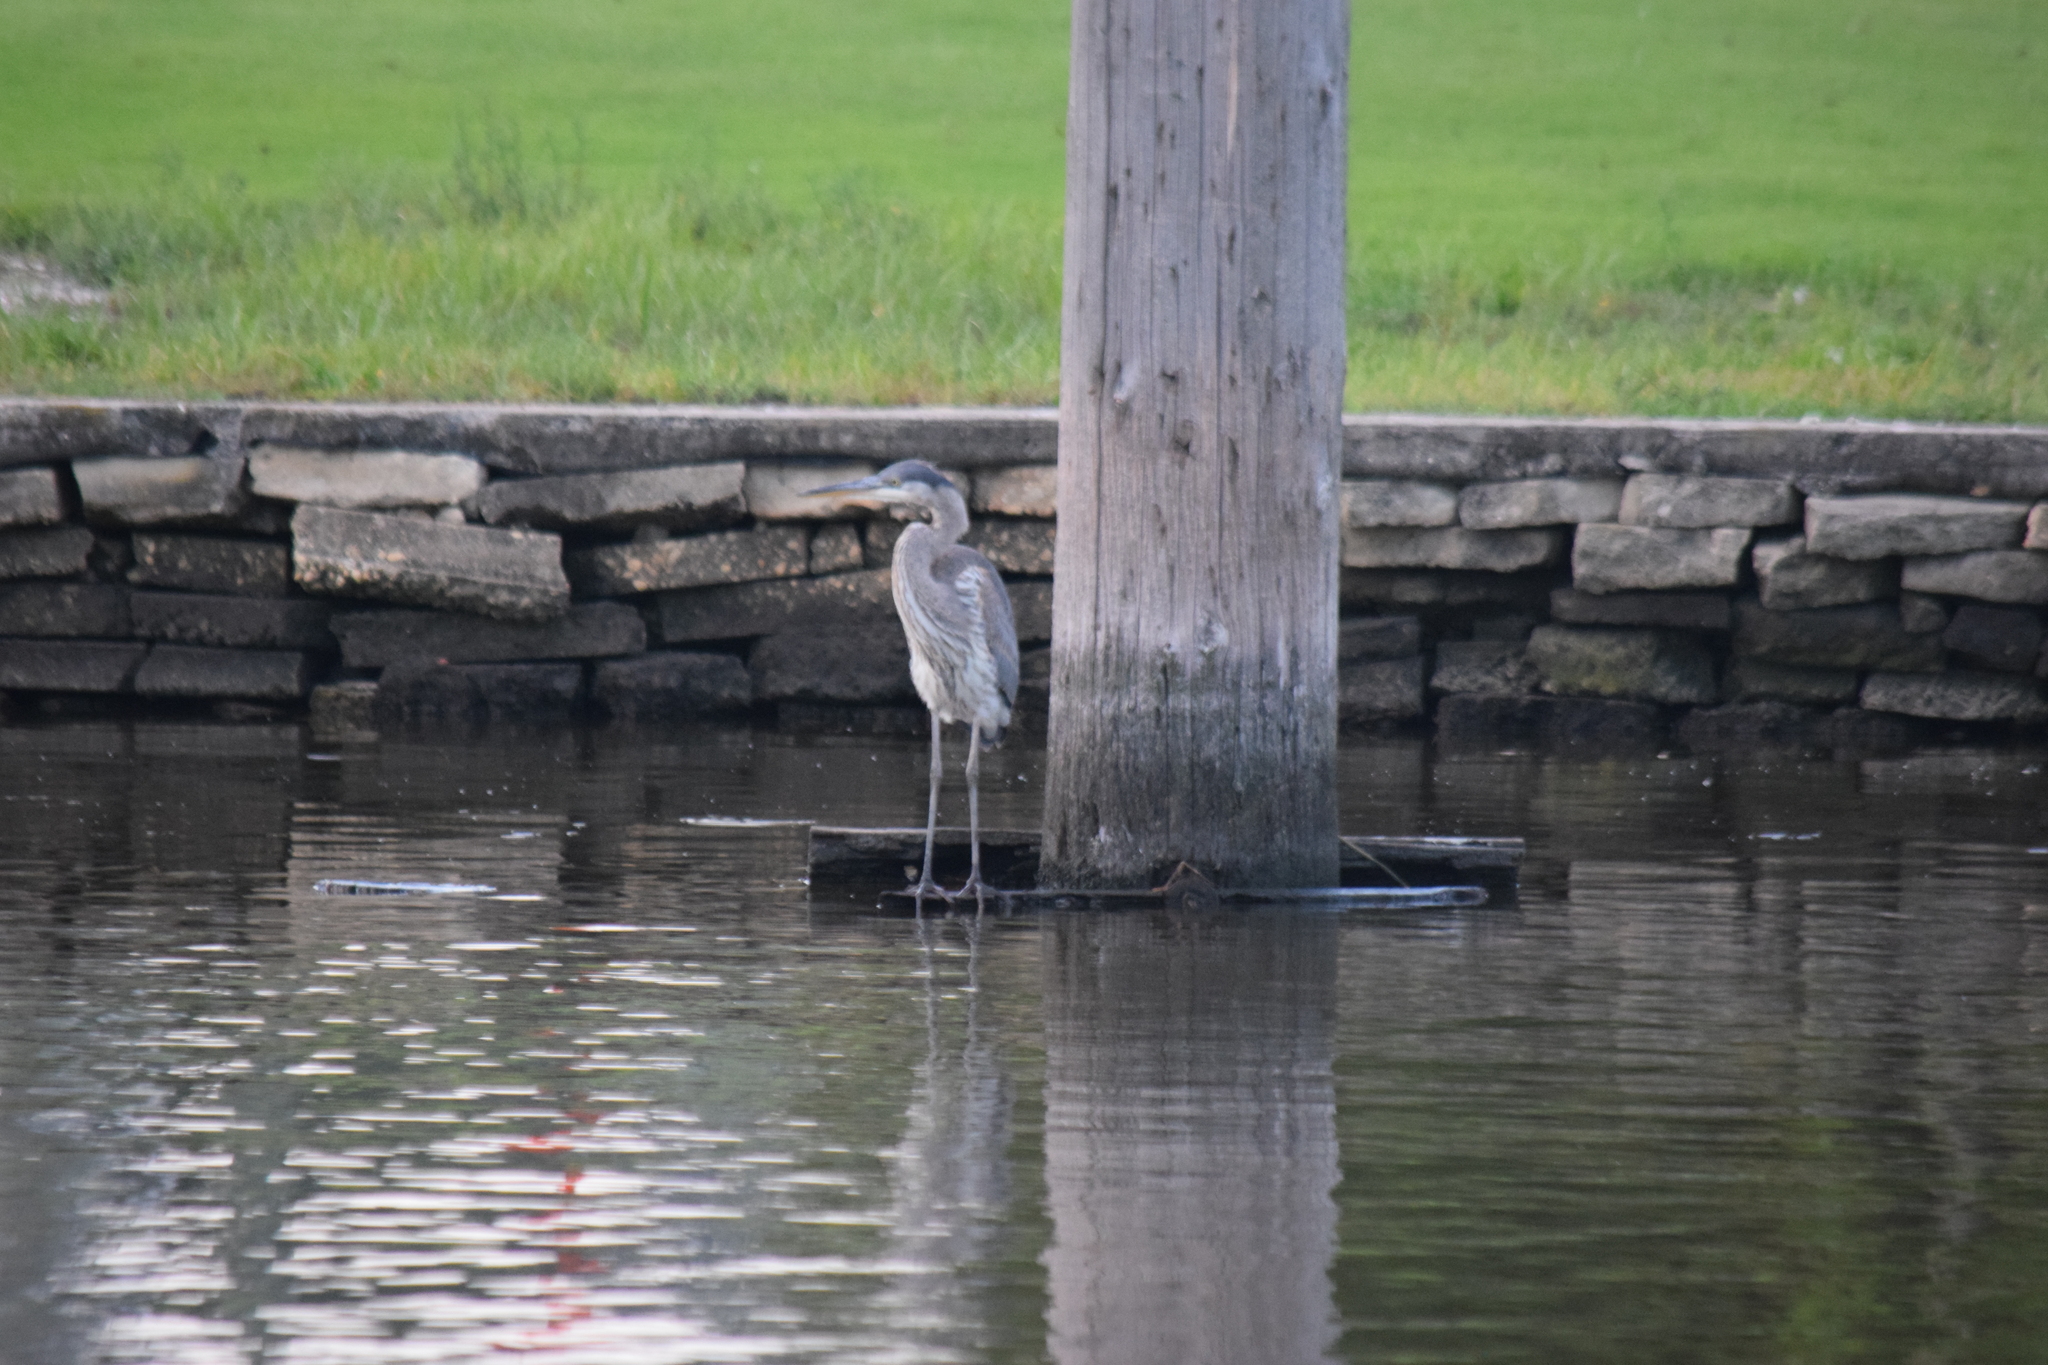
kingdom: Animalia
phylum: Chordata
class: Aves
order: Pelecaniformes
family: Ardeidae
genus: Ardea
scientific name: Ardea herodias
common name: Great blue heron
